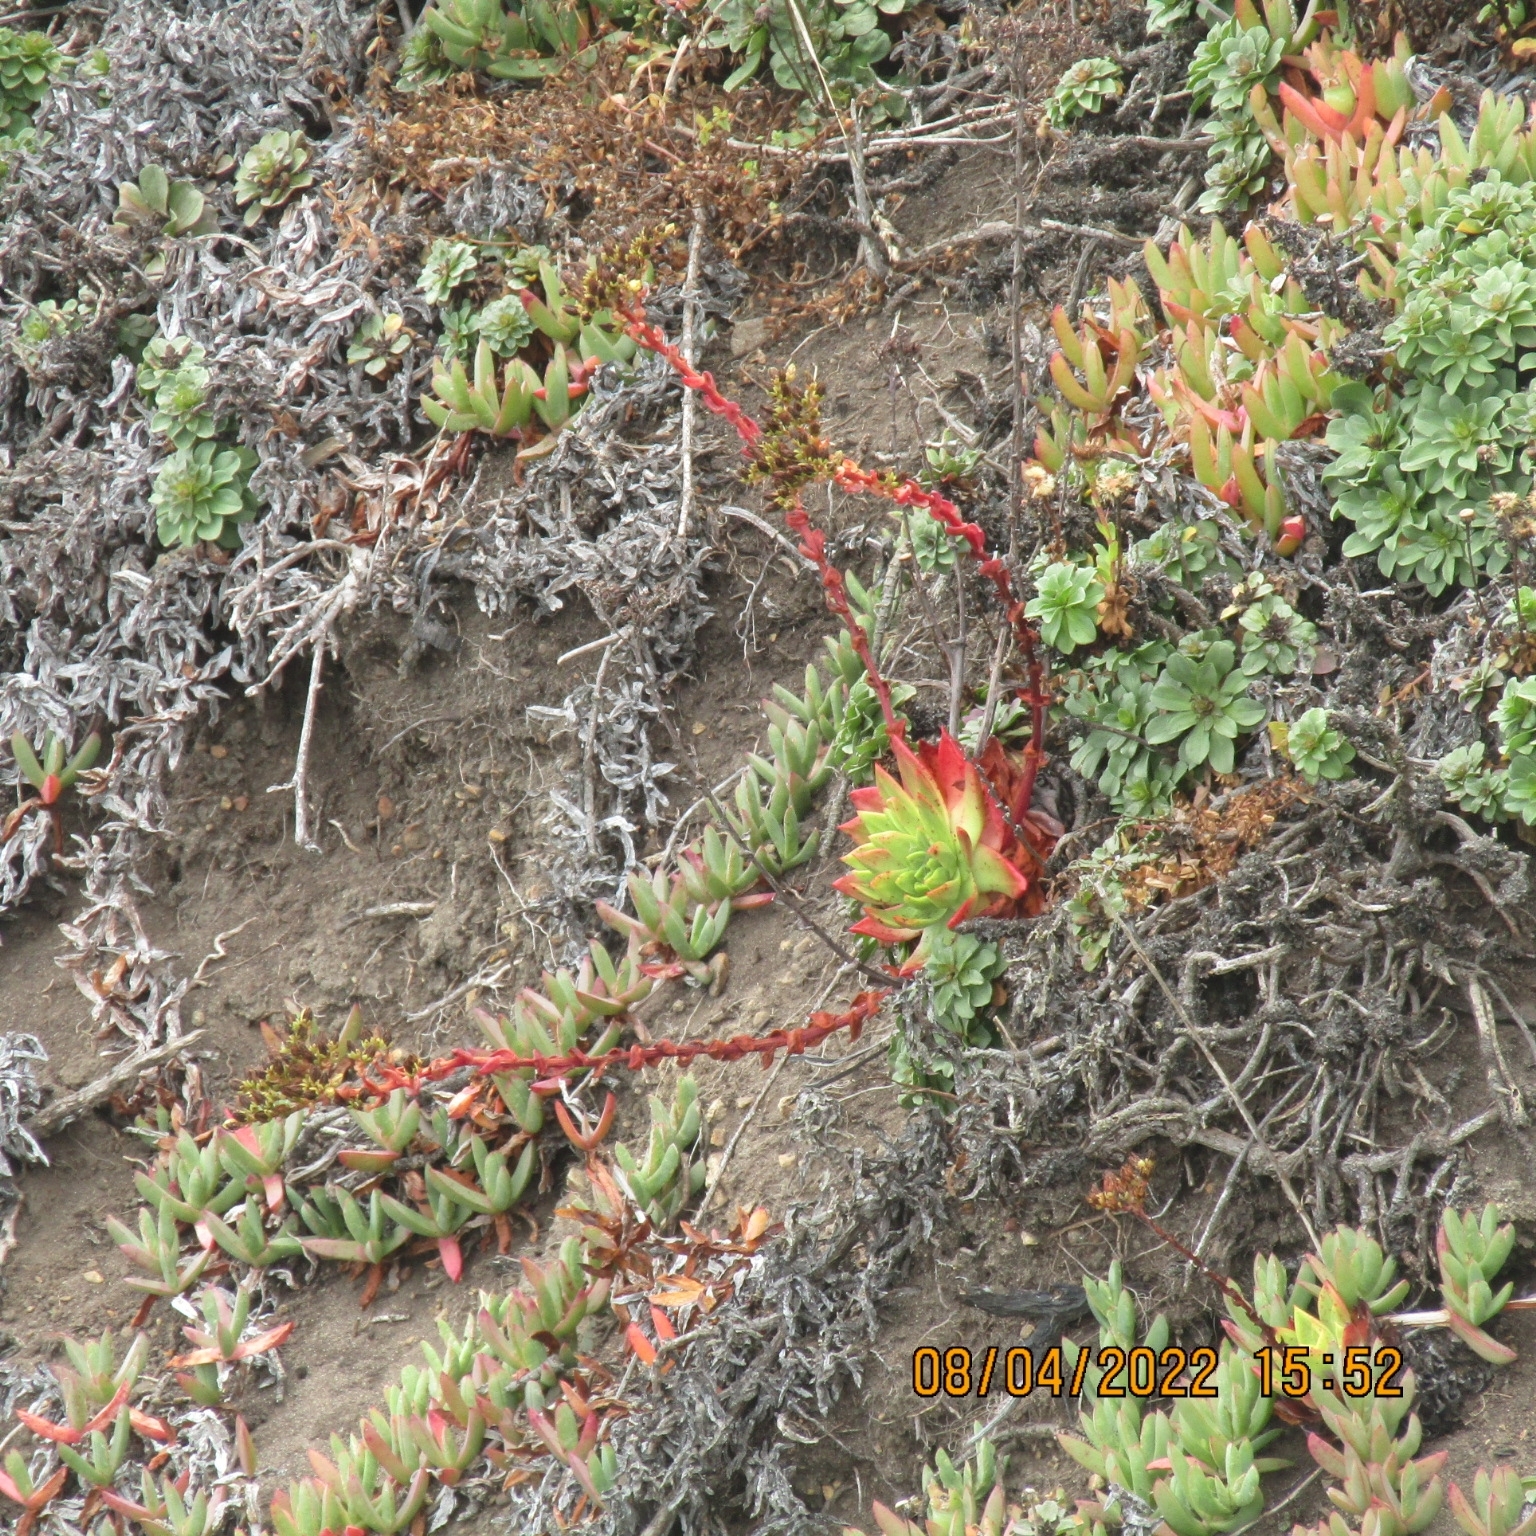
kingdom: Plantae
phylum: Tracheophyta
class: Magnoliopsida
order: Saxifragales
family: Crassulaceae
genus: Dudleya
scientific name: Dudleya farinosa
